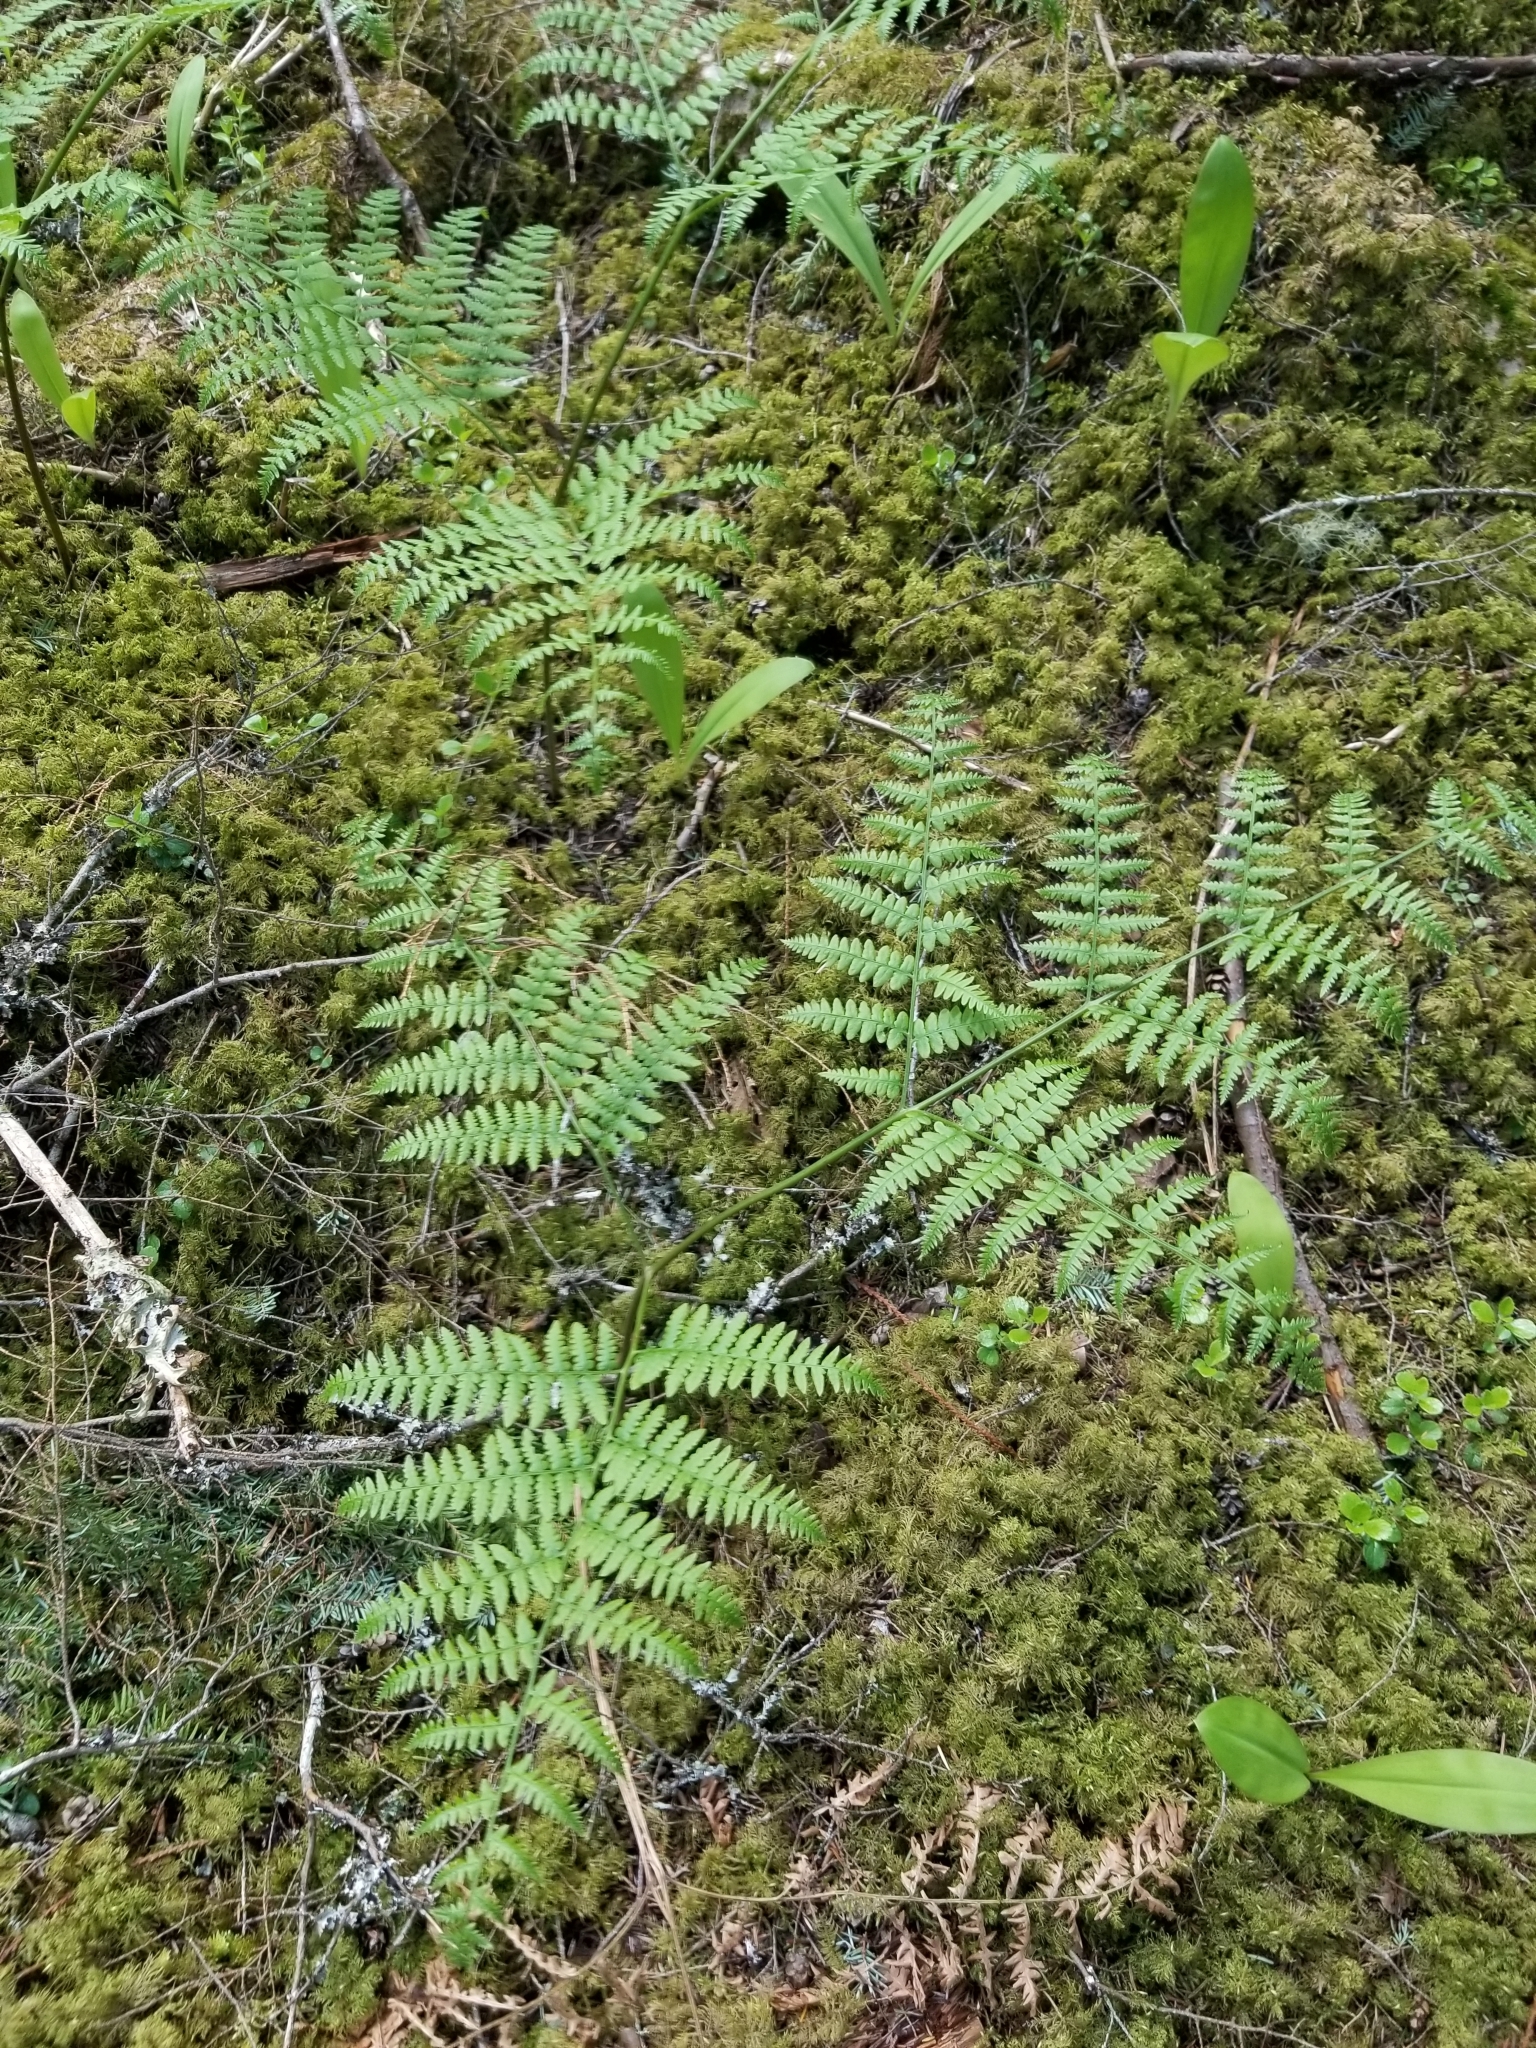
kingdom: Plantae
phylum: Tracheophyta
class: Polypodiopsida
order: Polypodiales
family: Dennstaedtiaceae
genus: Pteridium
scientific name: Pteridium aquilinum
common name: Bracken
